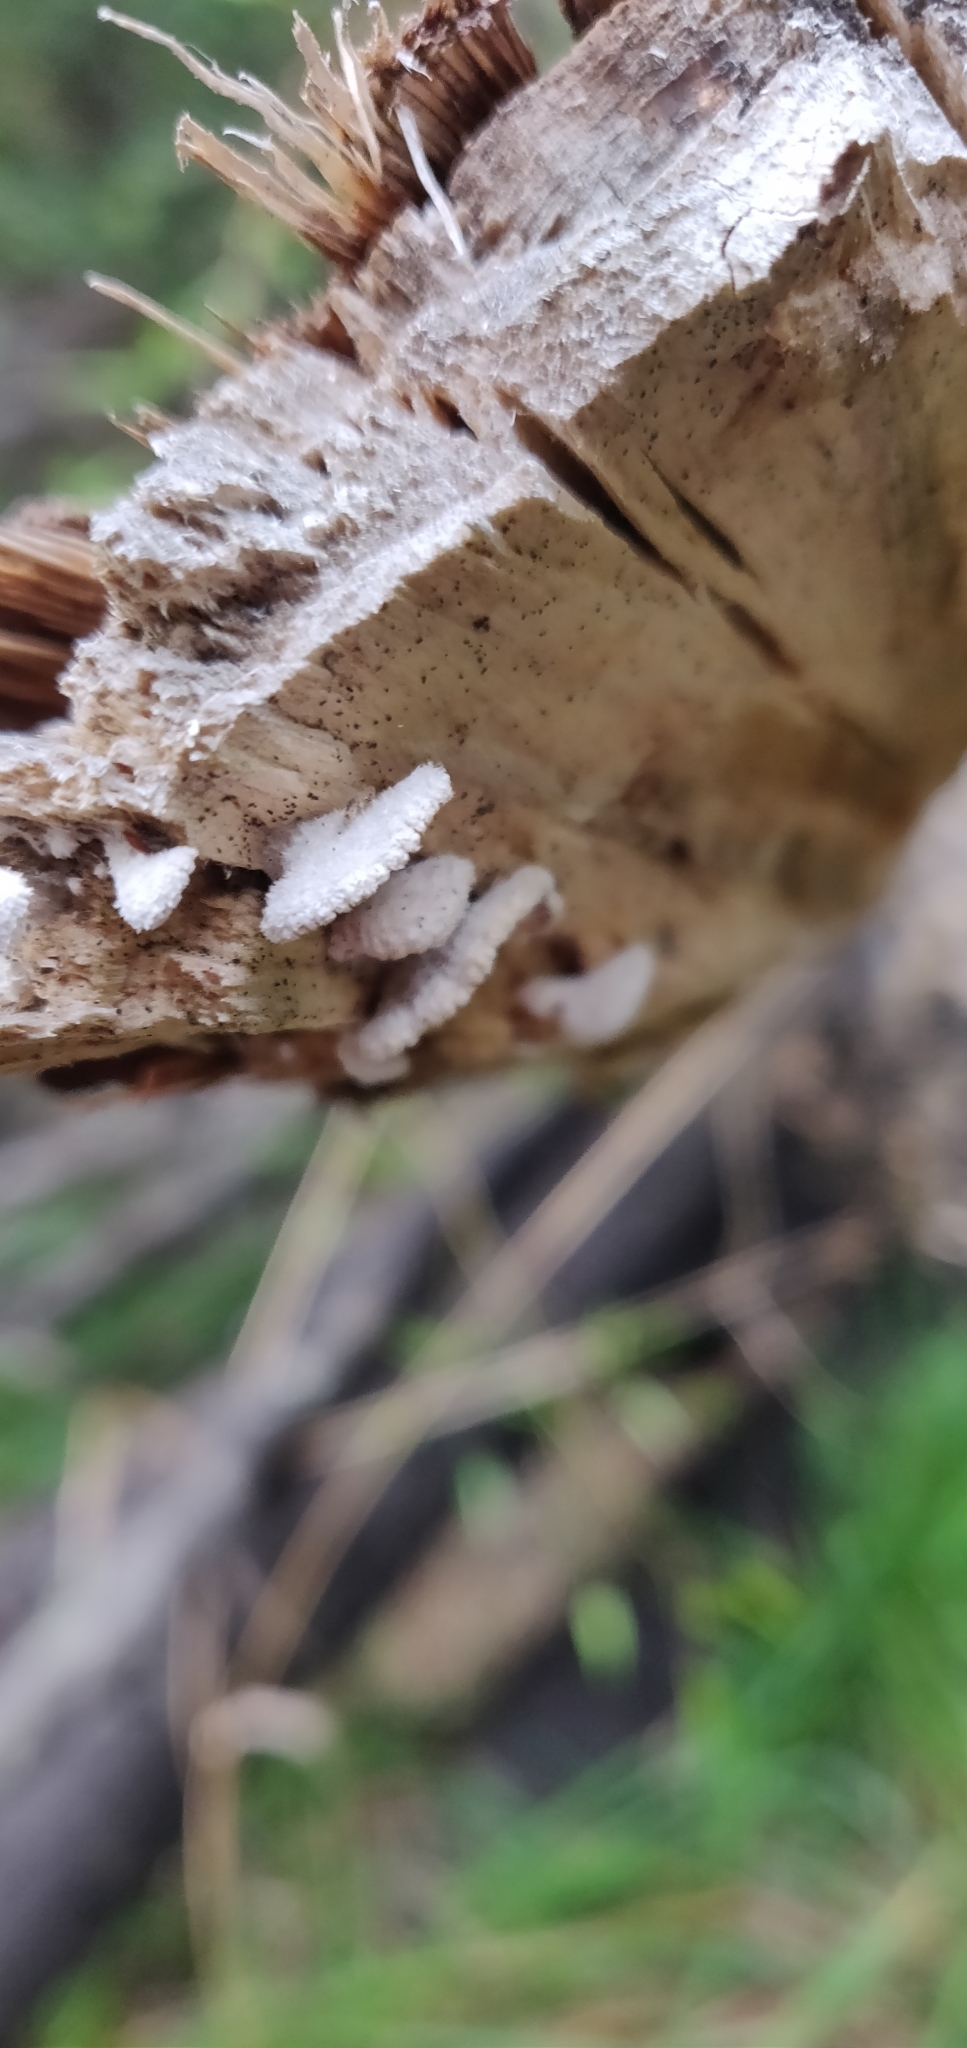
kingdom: Fungi
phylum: Basidiomycota
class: Agaricomycetes
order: Agaricales
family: Schizophyllaceae
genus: Schizophyllum
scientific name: Schizophyllum commune
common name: Common porecrust
